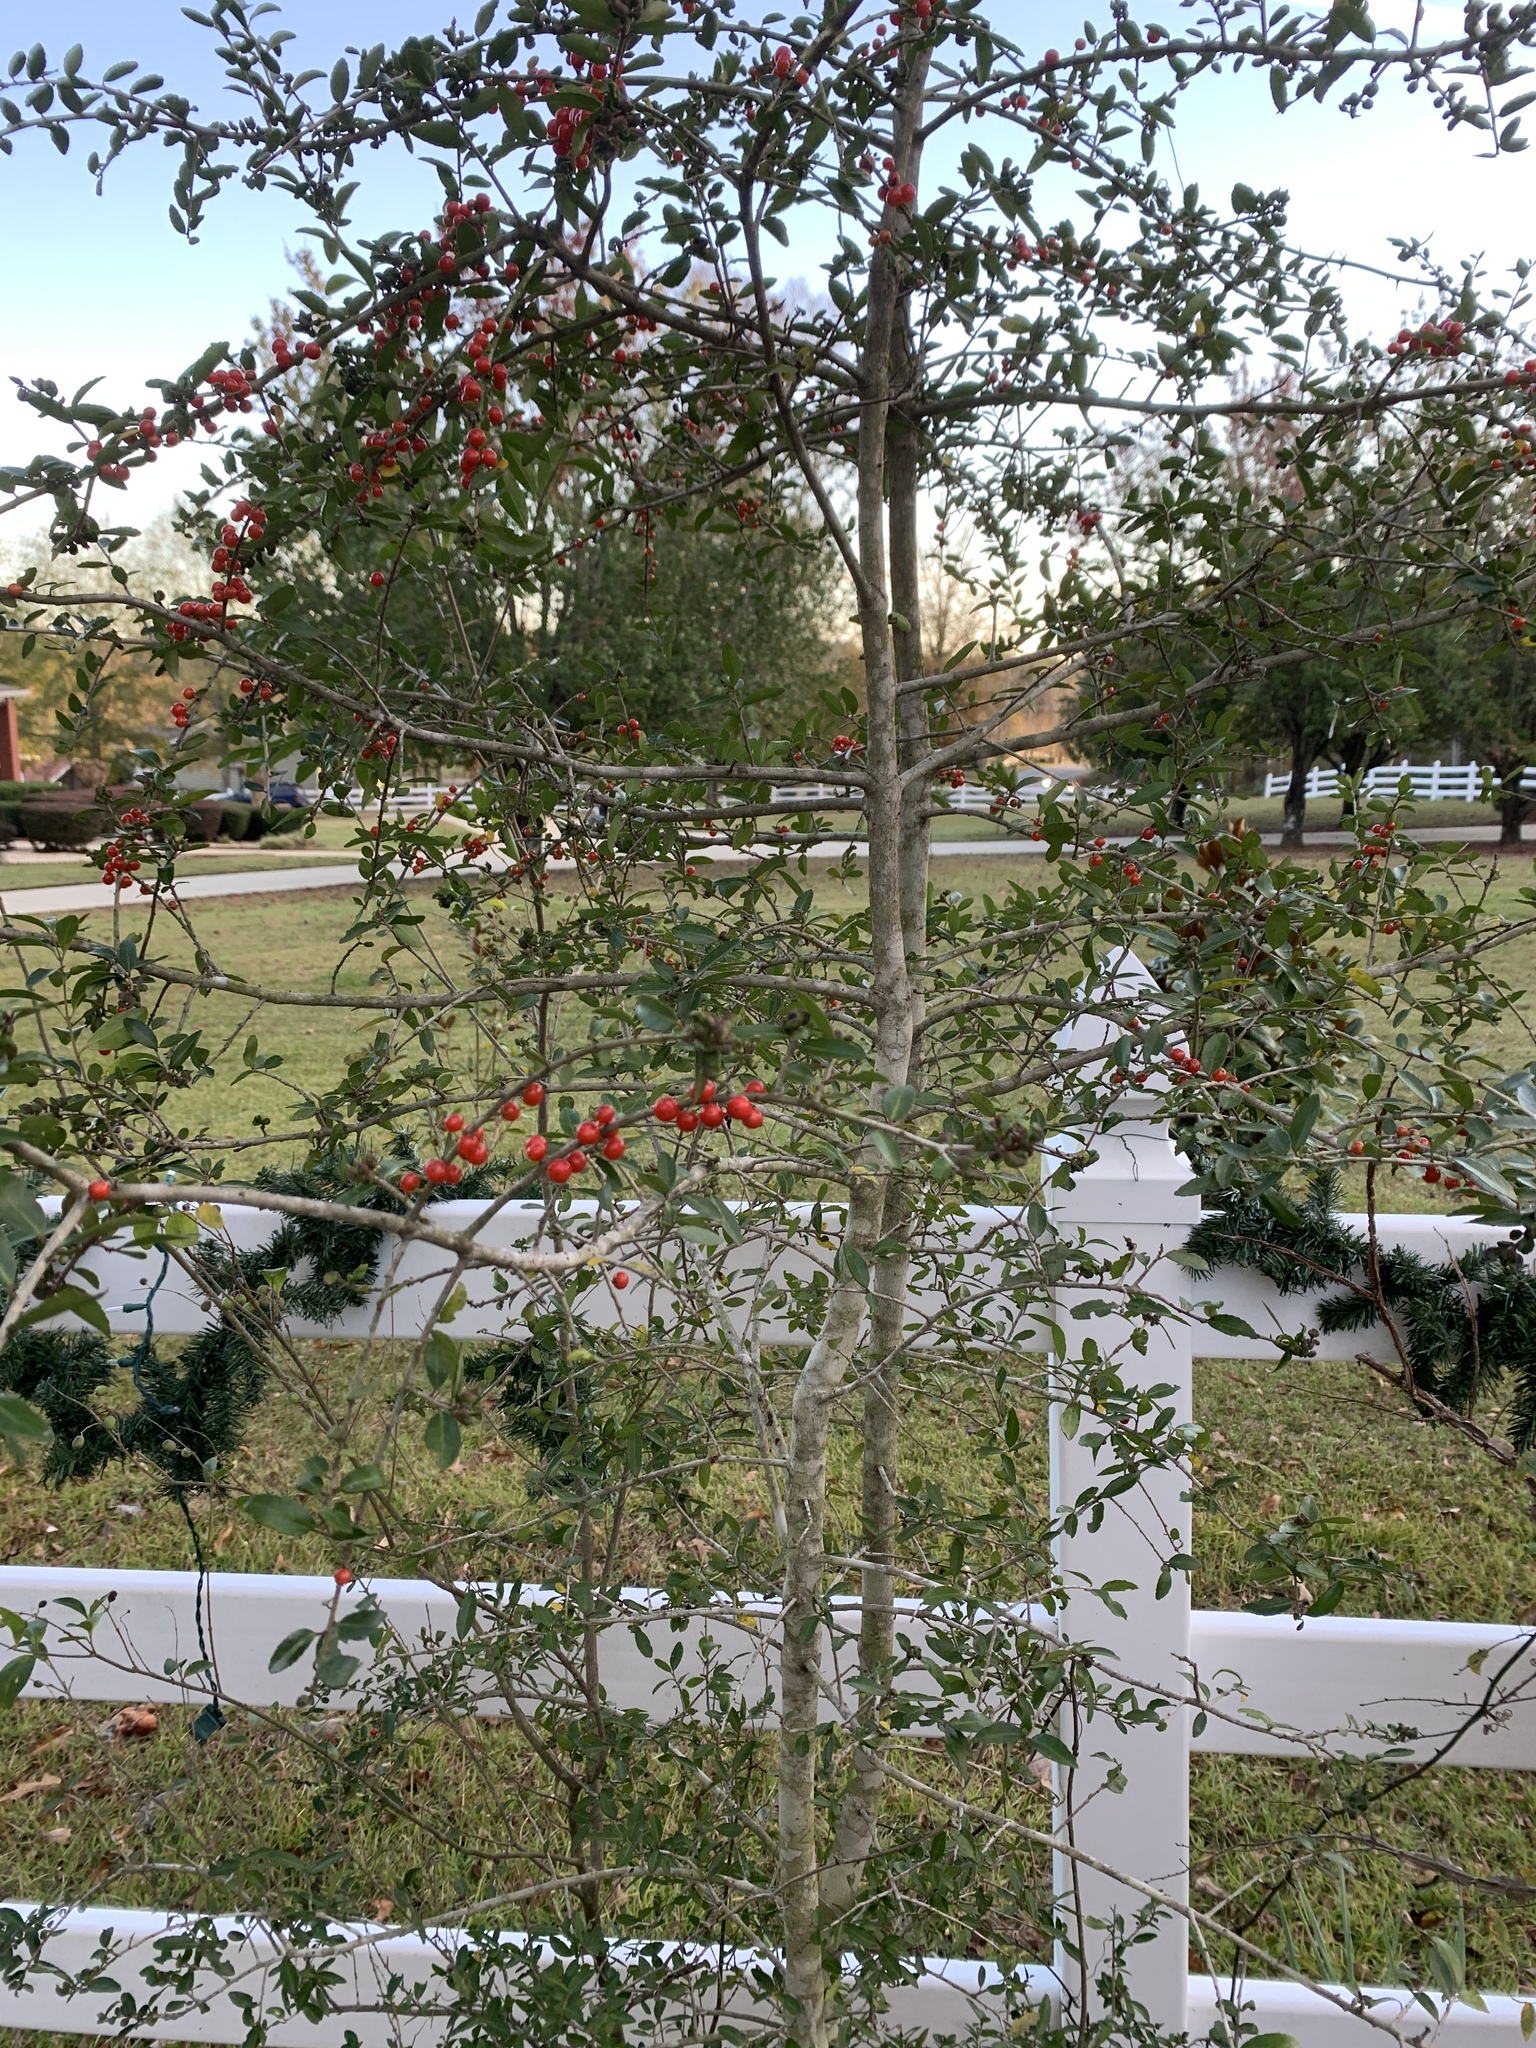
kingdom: Plantae
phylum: Tracheophyta
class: Magnoliopsida
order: Aquifoliales
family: Aquifoliaceae
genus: Ilex
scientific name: Ilex vomitoria
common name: Yaupon holly
